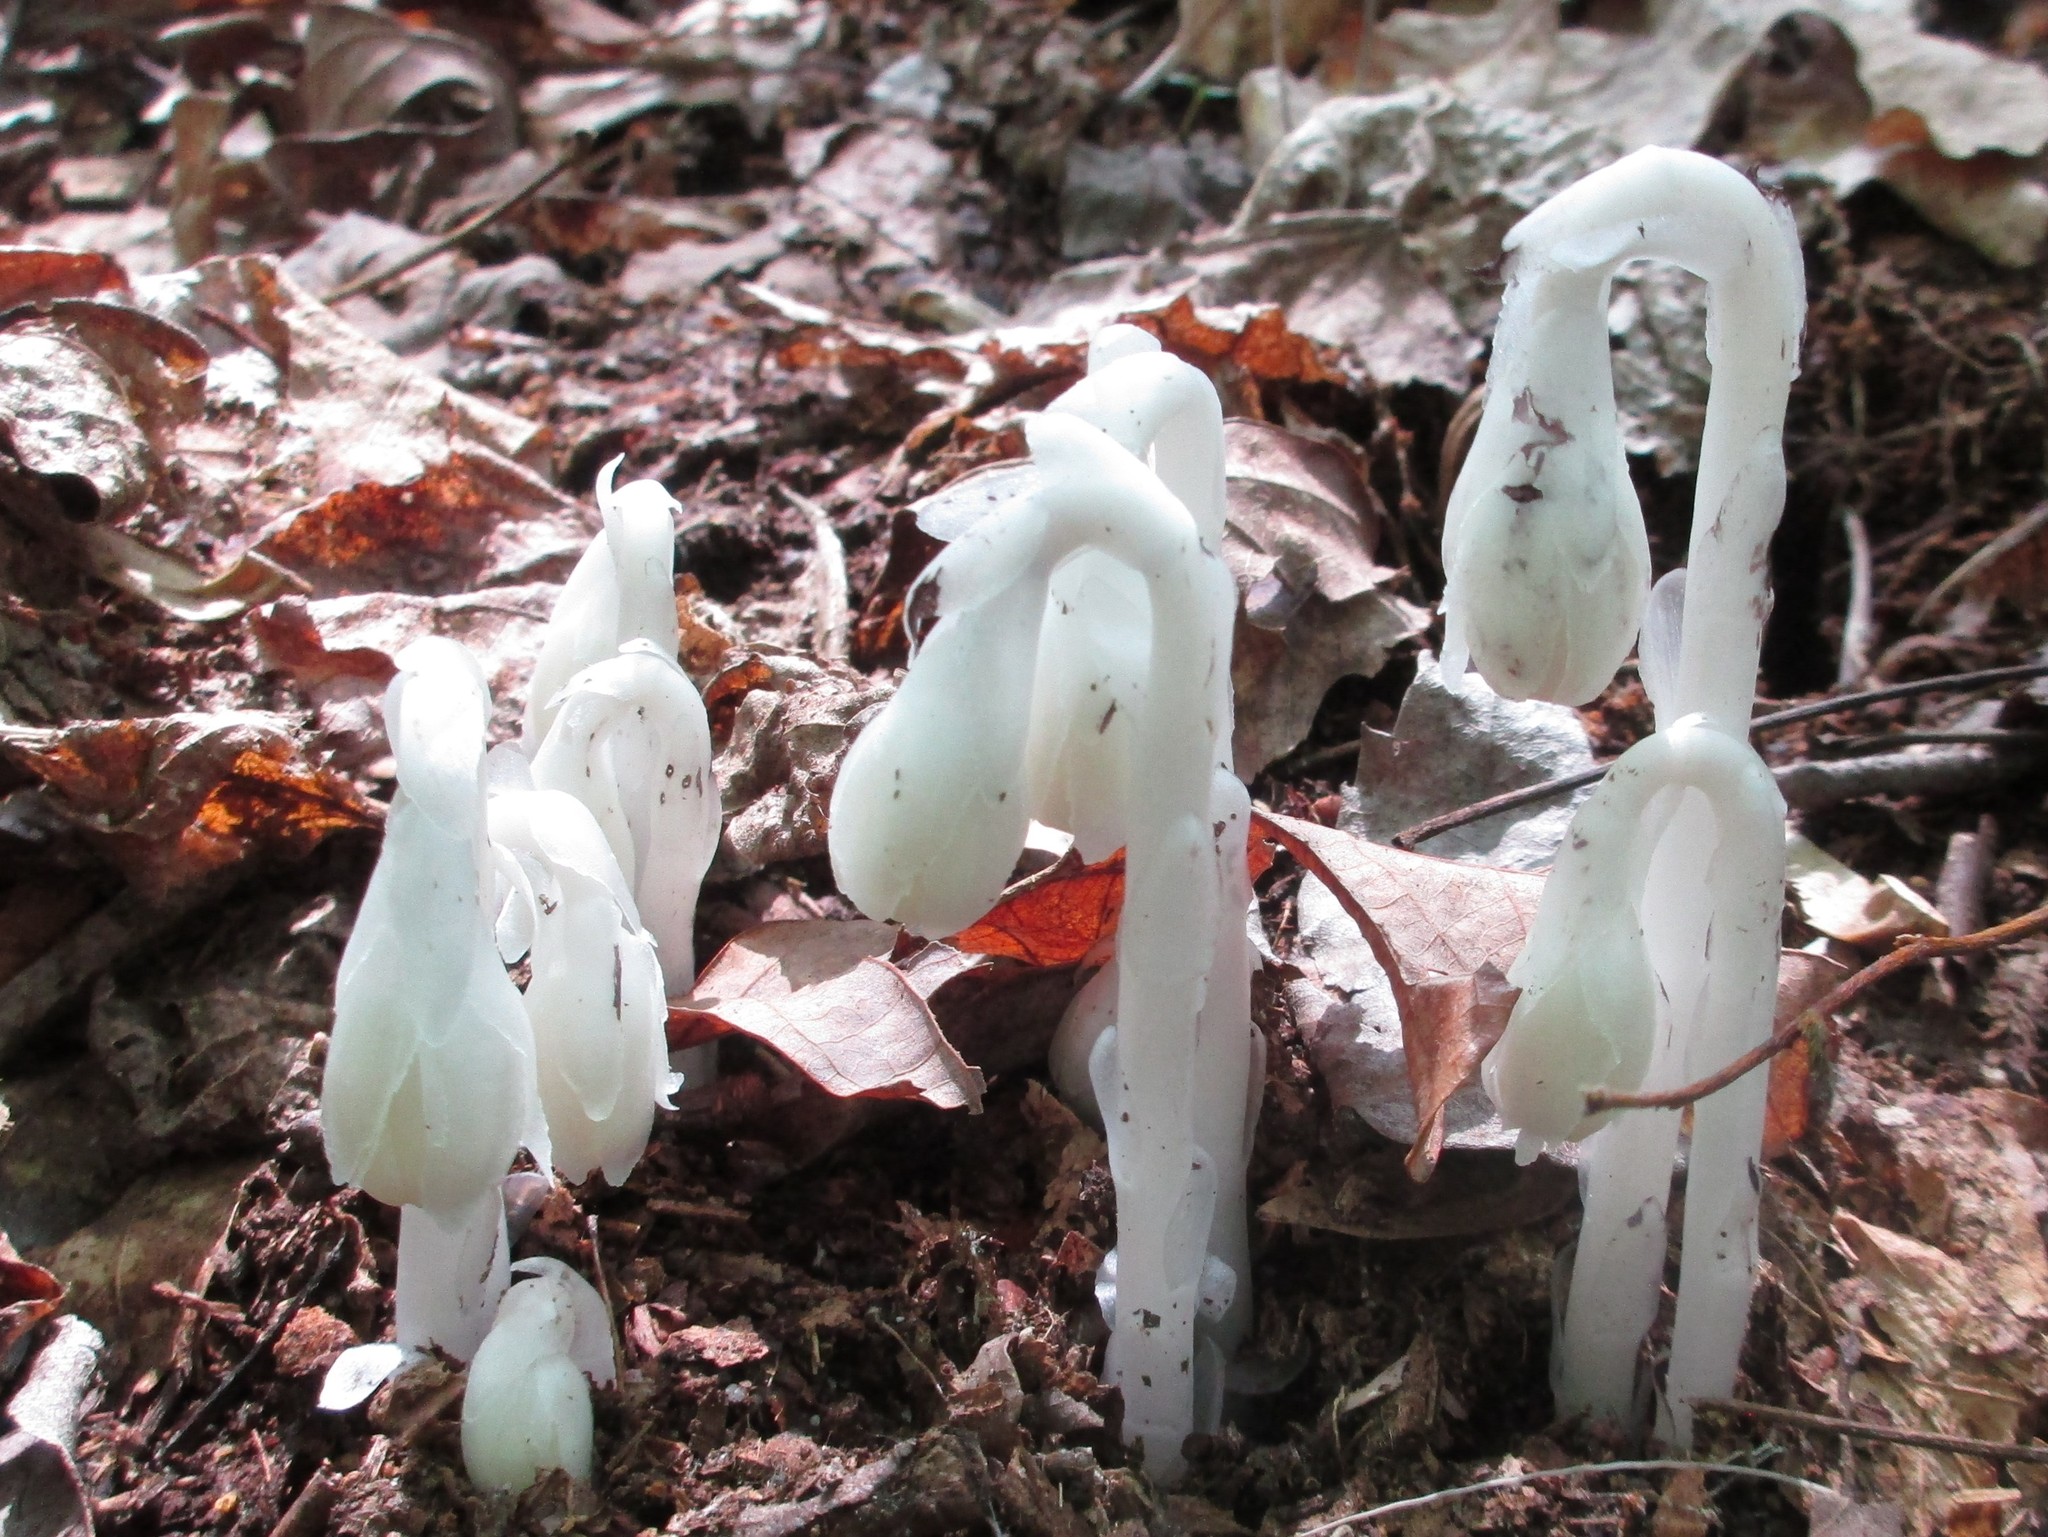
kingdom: Plantae
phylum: Tracheophyta
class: Magnoliopsida
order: Ericales
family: Ericaceae
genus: Monotropa
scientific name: Monotropa uniflora
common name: Convulsion root
